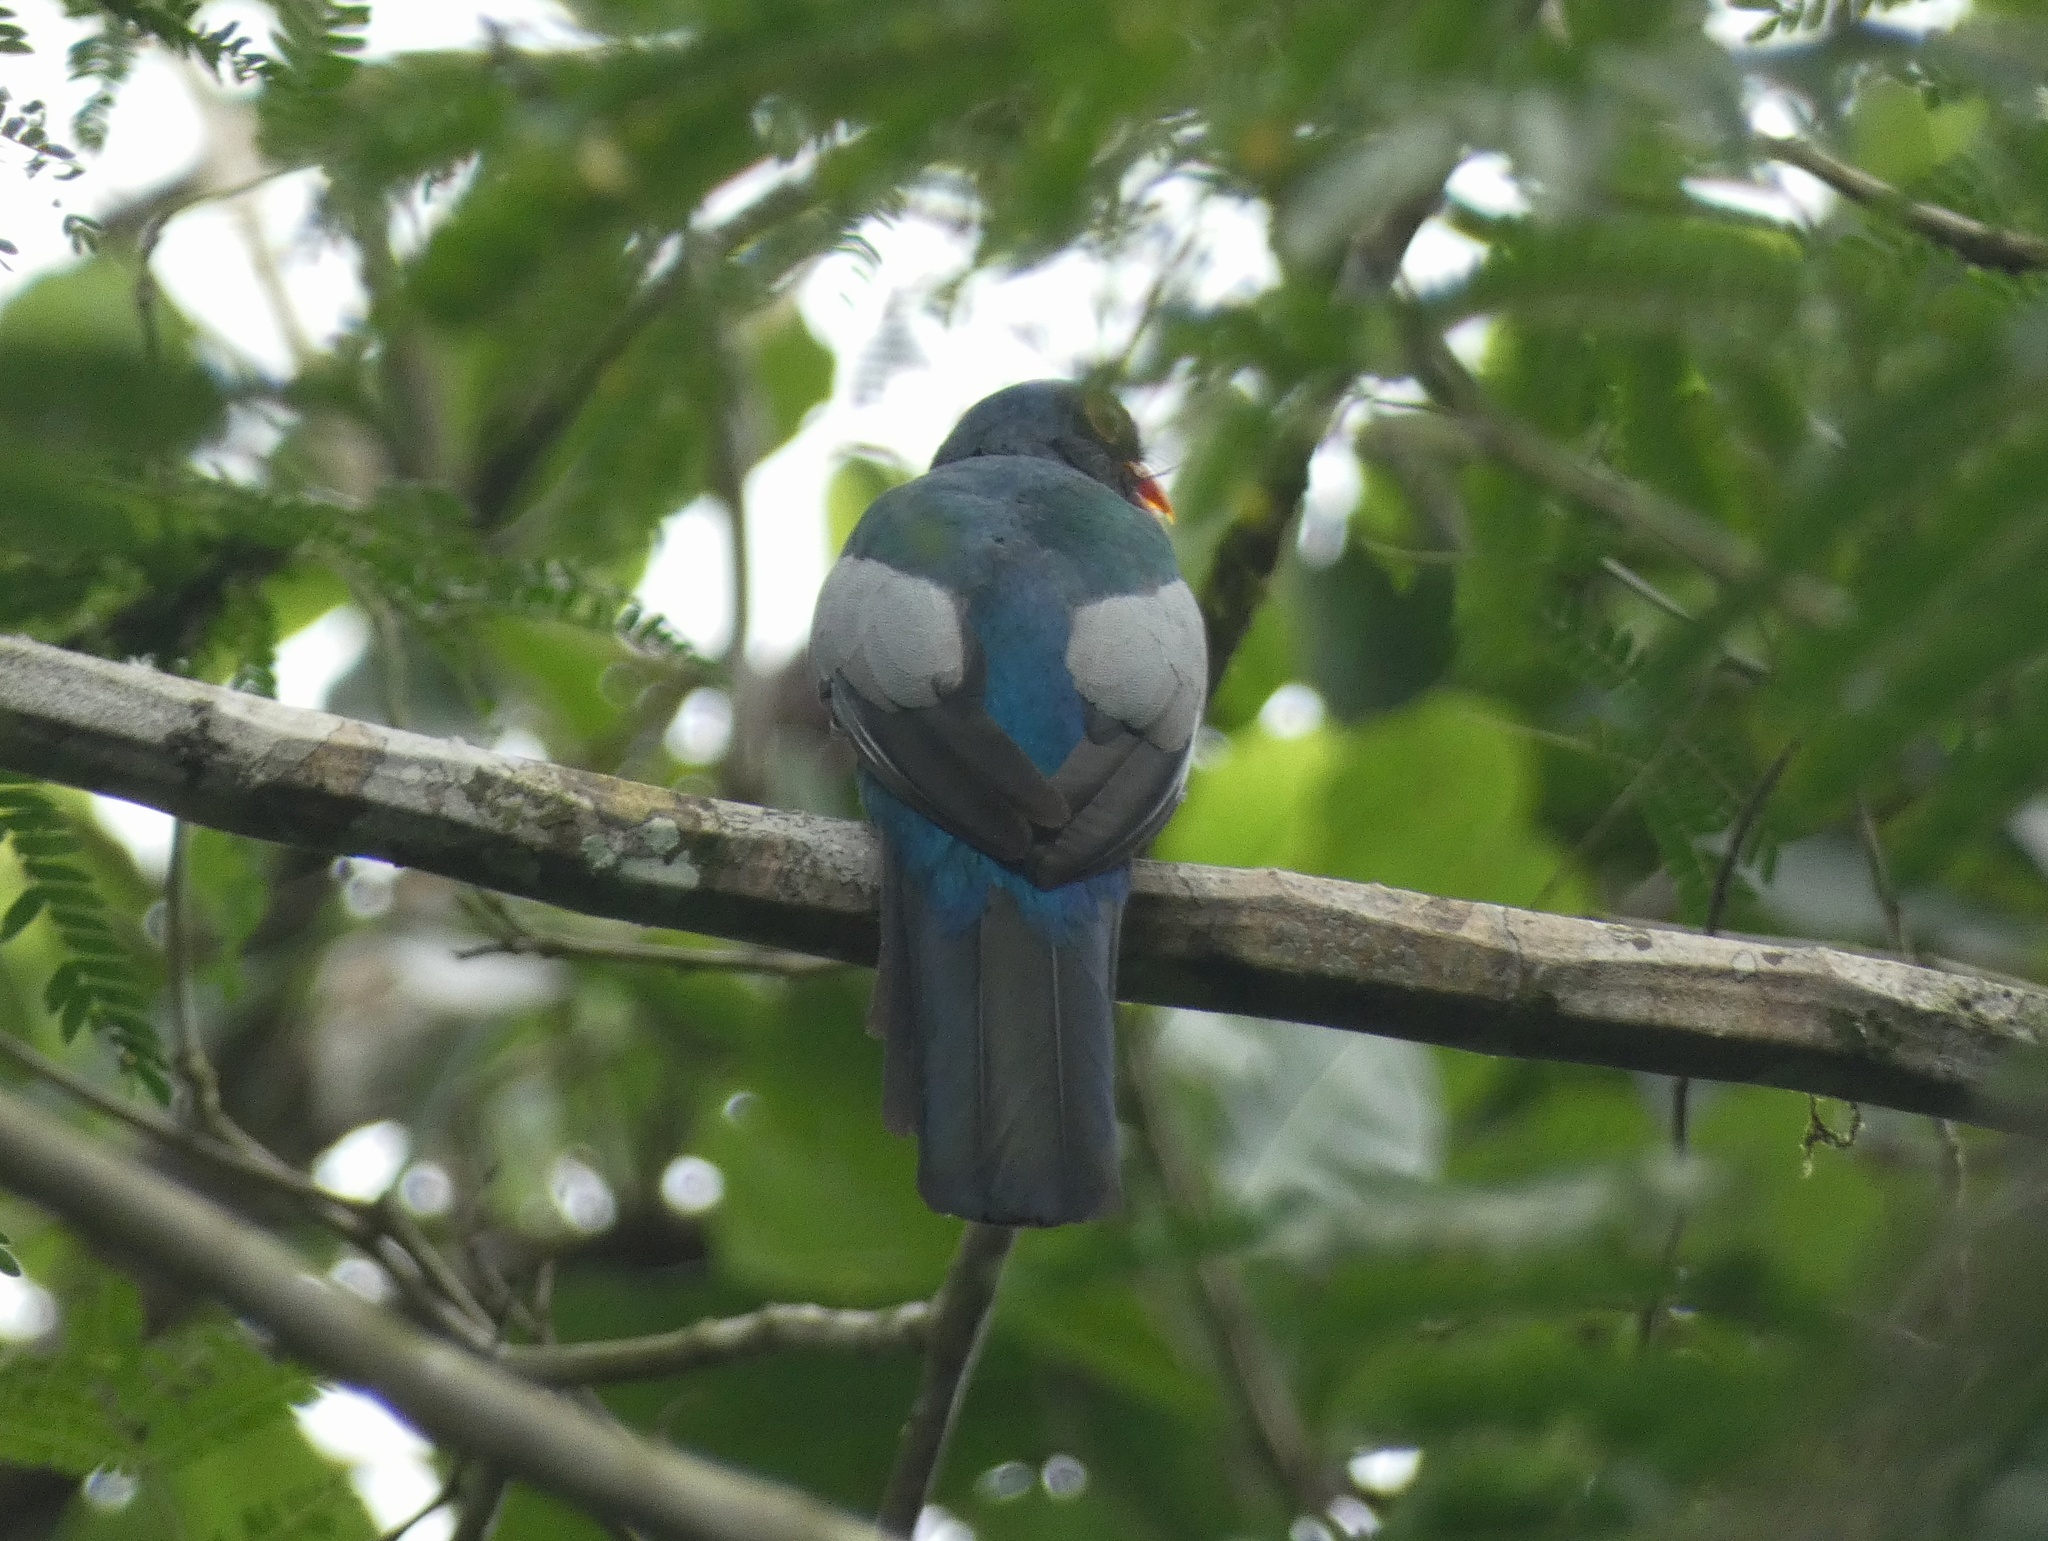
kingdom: Animalia
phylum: Chordata
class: Aves
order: Trogoniformes
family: Trogonidae
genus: Trogon
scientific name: Trogon massena
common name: Slaty-tailed trogon
